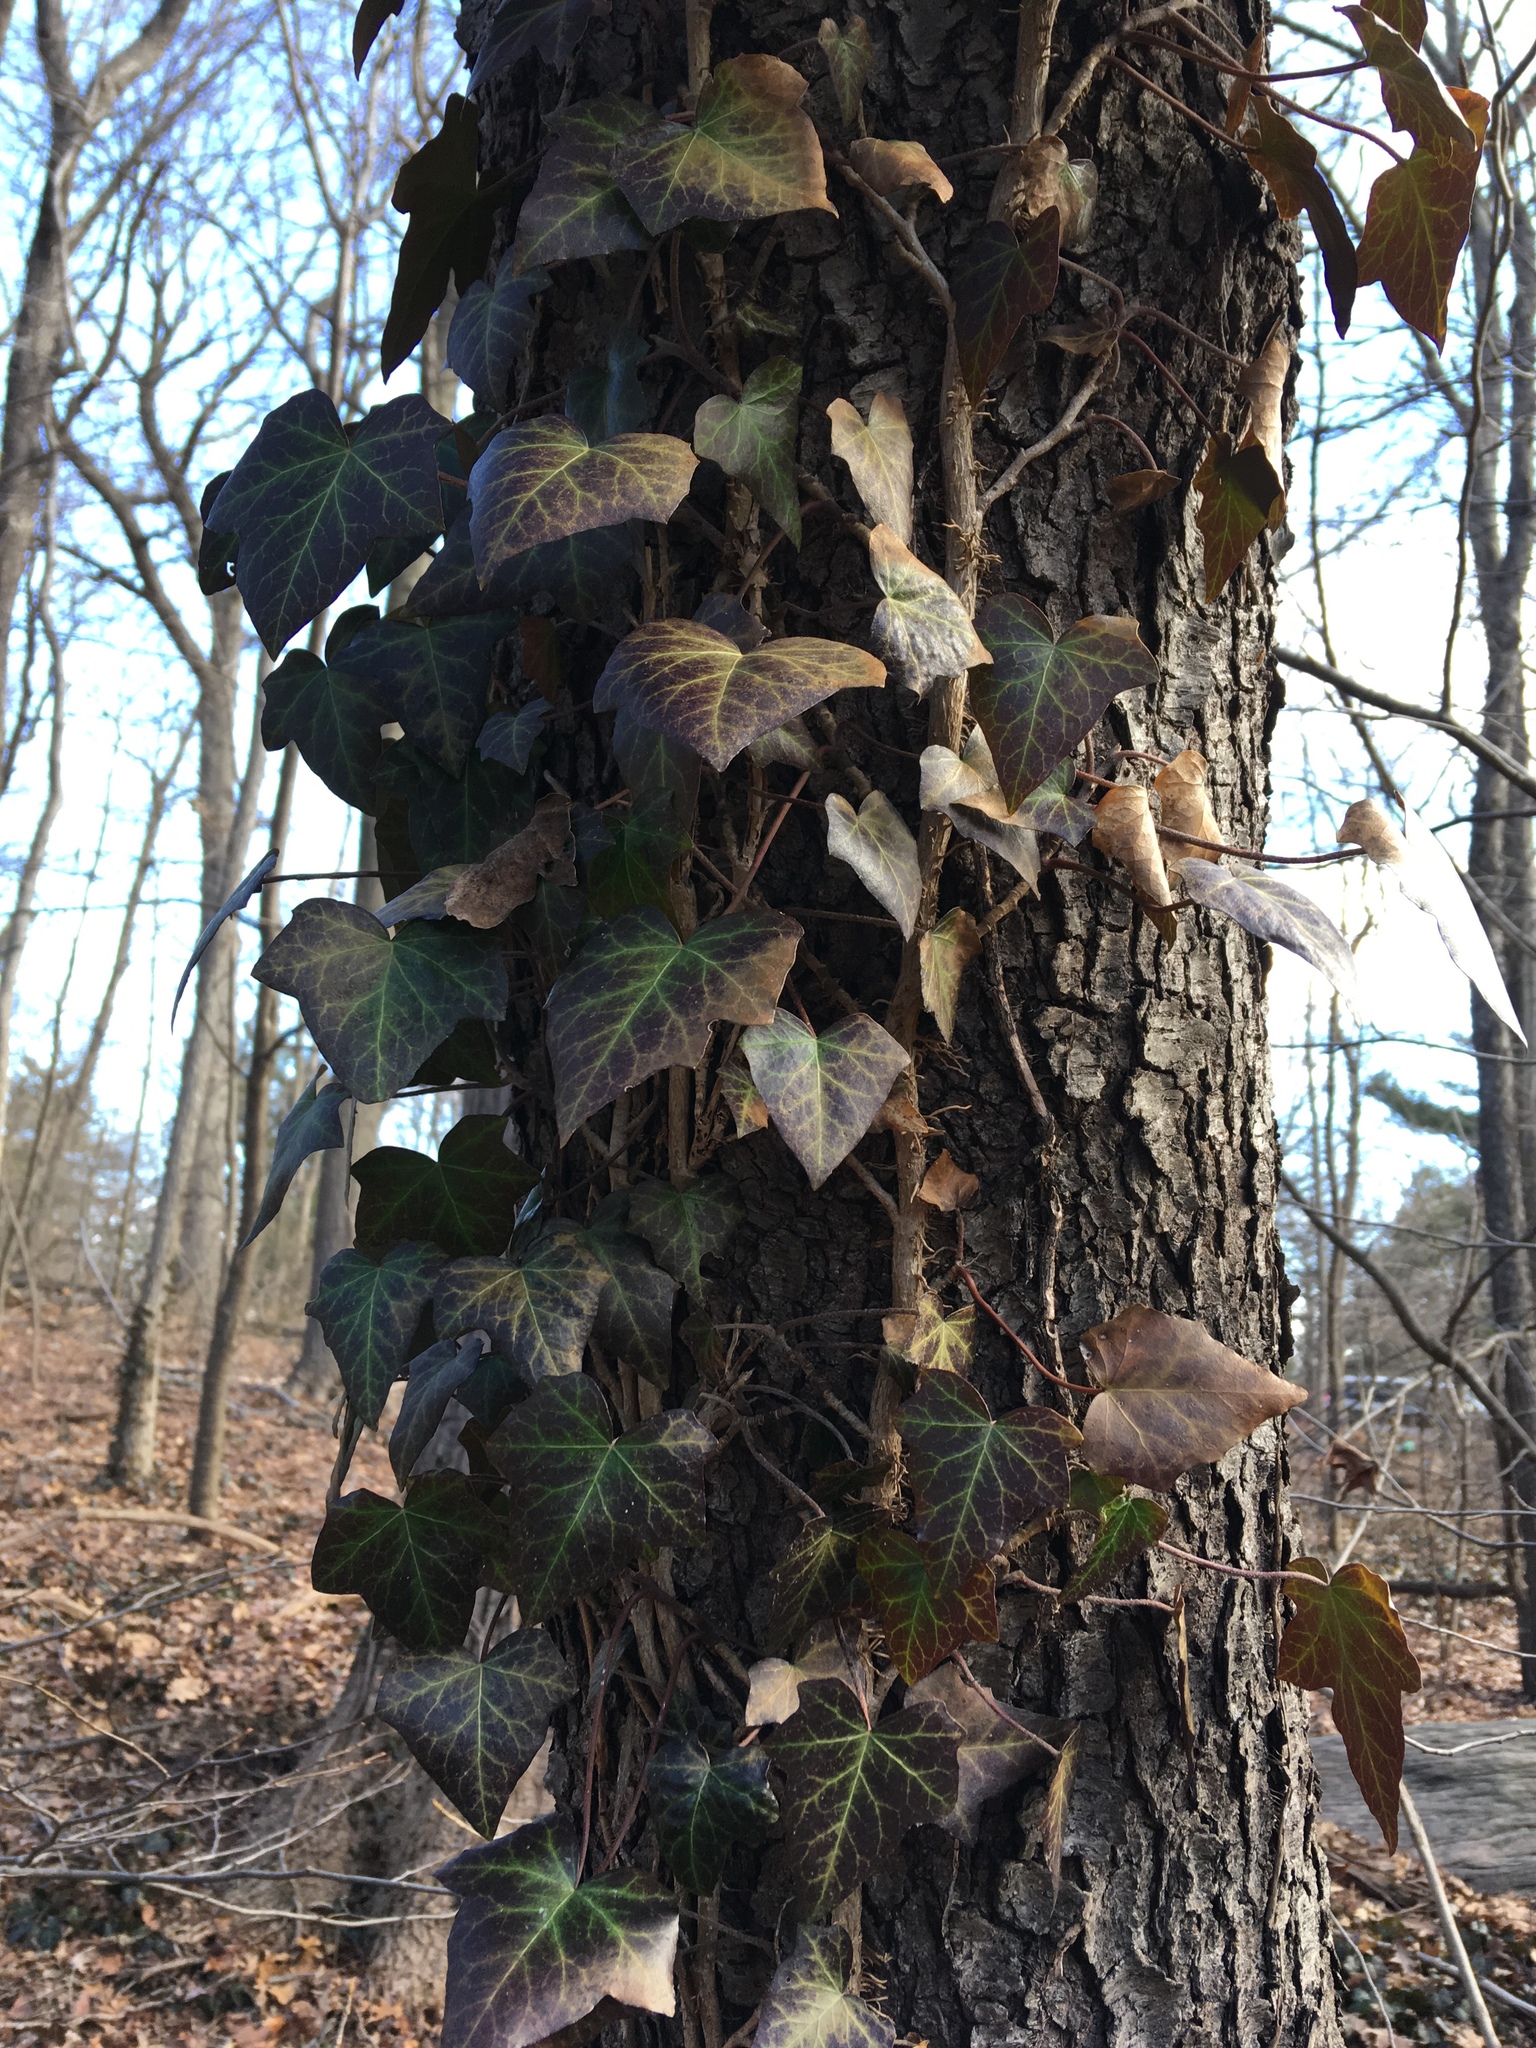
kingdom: Plantae
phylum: Tracheophyta
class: Magnoliopsida
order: Apiales
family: Araliaceae
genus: Hedera
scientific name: Hedera helix
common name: Ivy
